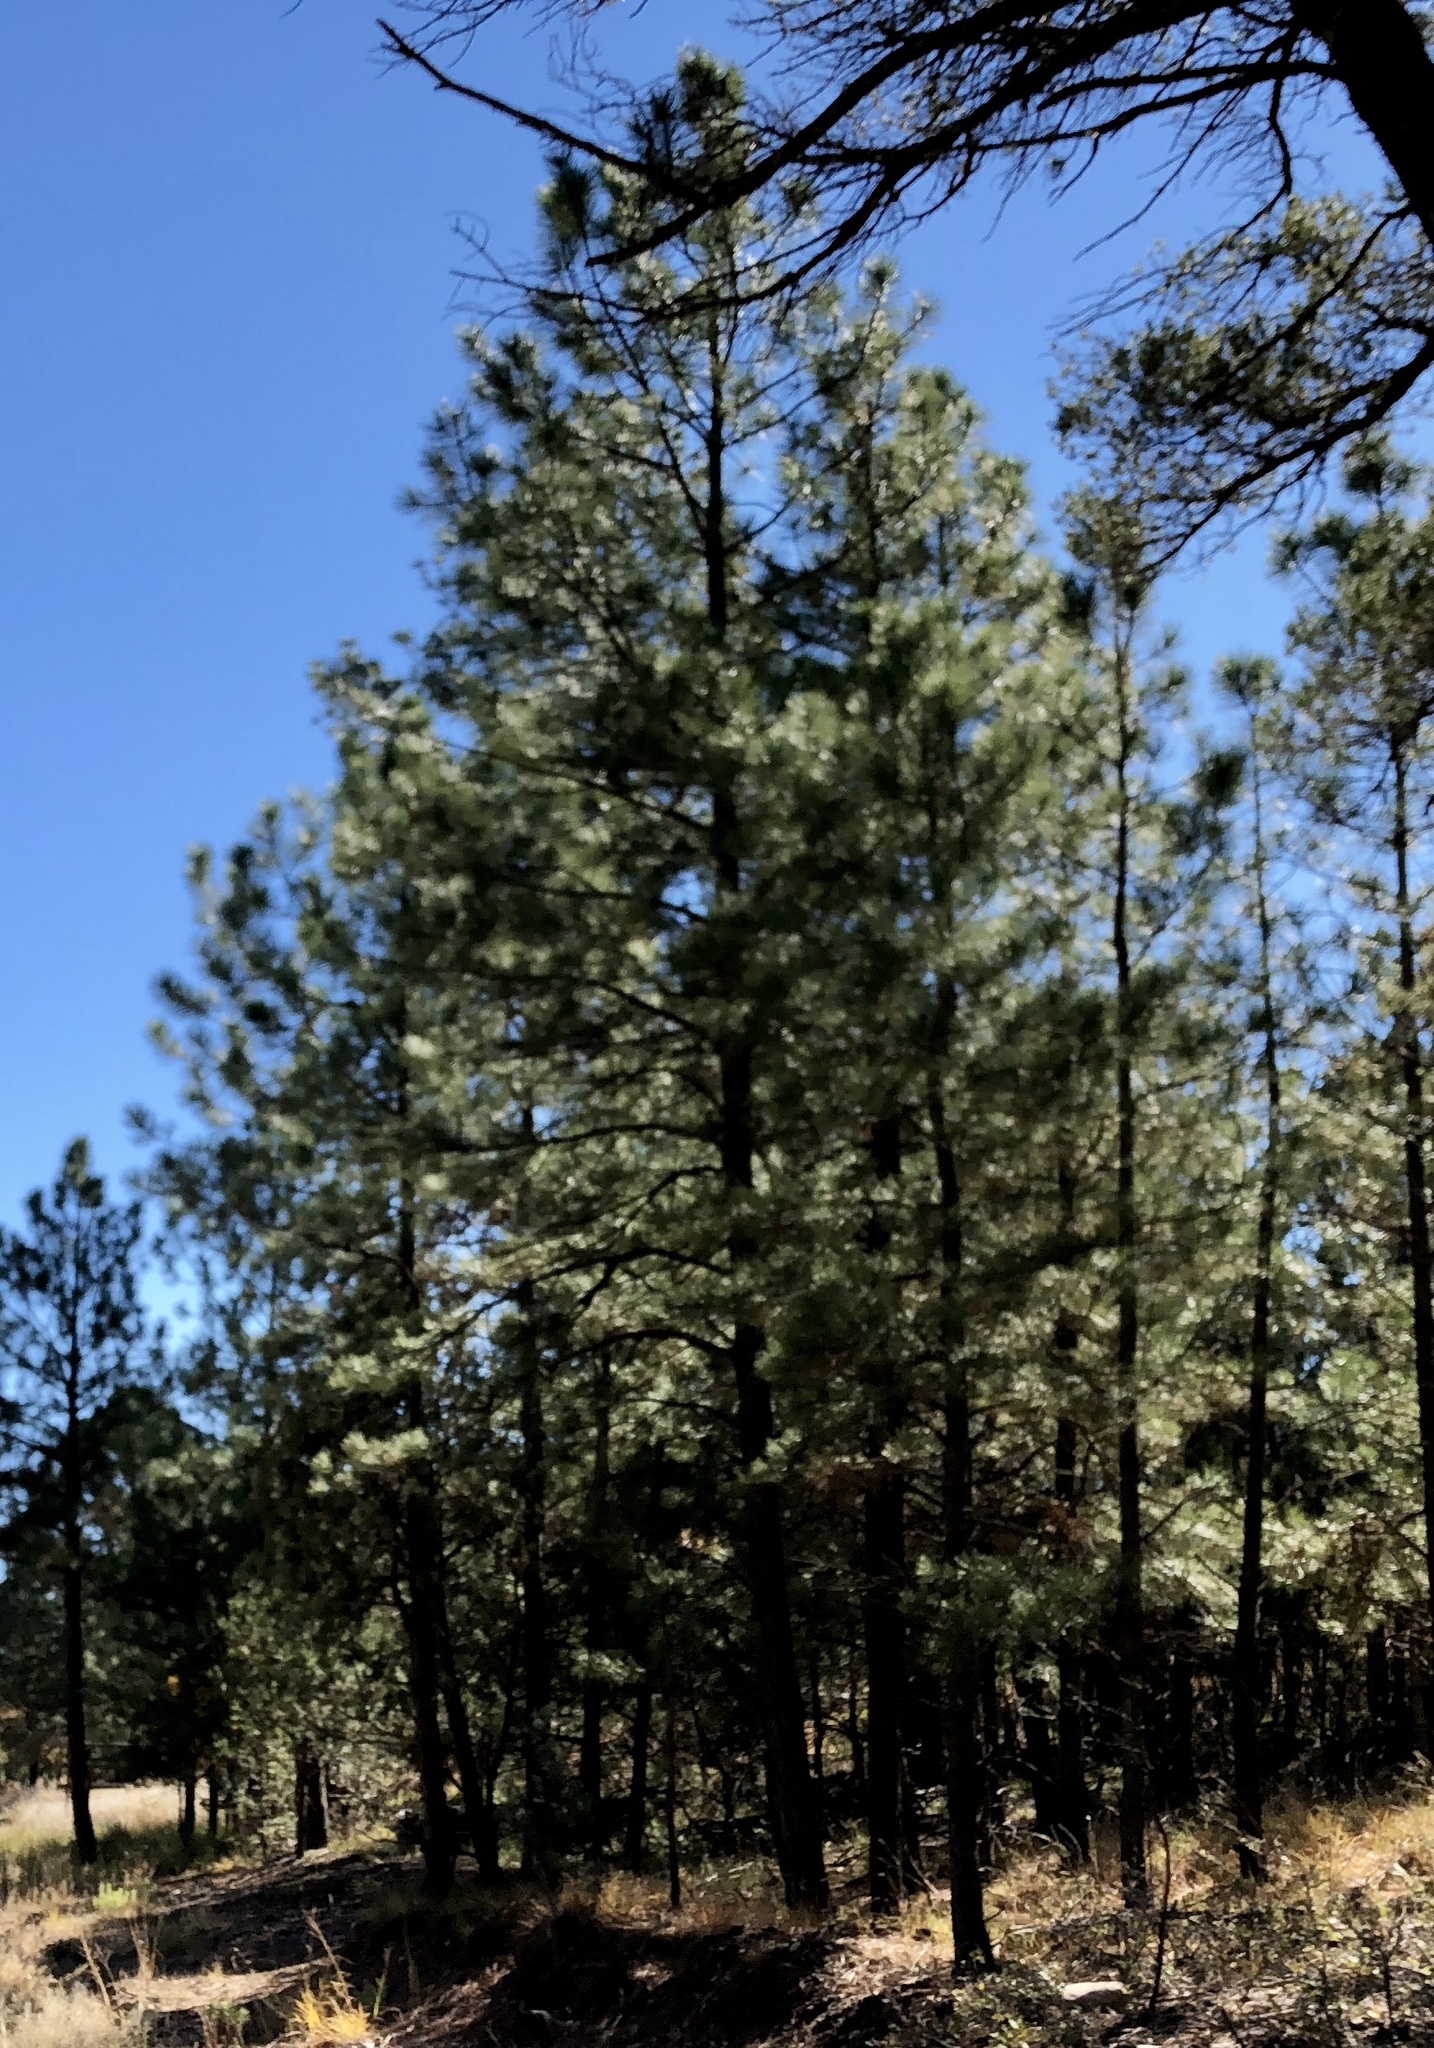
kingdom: Plantae
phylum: Tracheophyta
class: Pinopsida
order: Pinales
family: Pinaceae
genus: Pinus
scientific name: Pinus ponderosa
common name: Western yellow-pine
